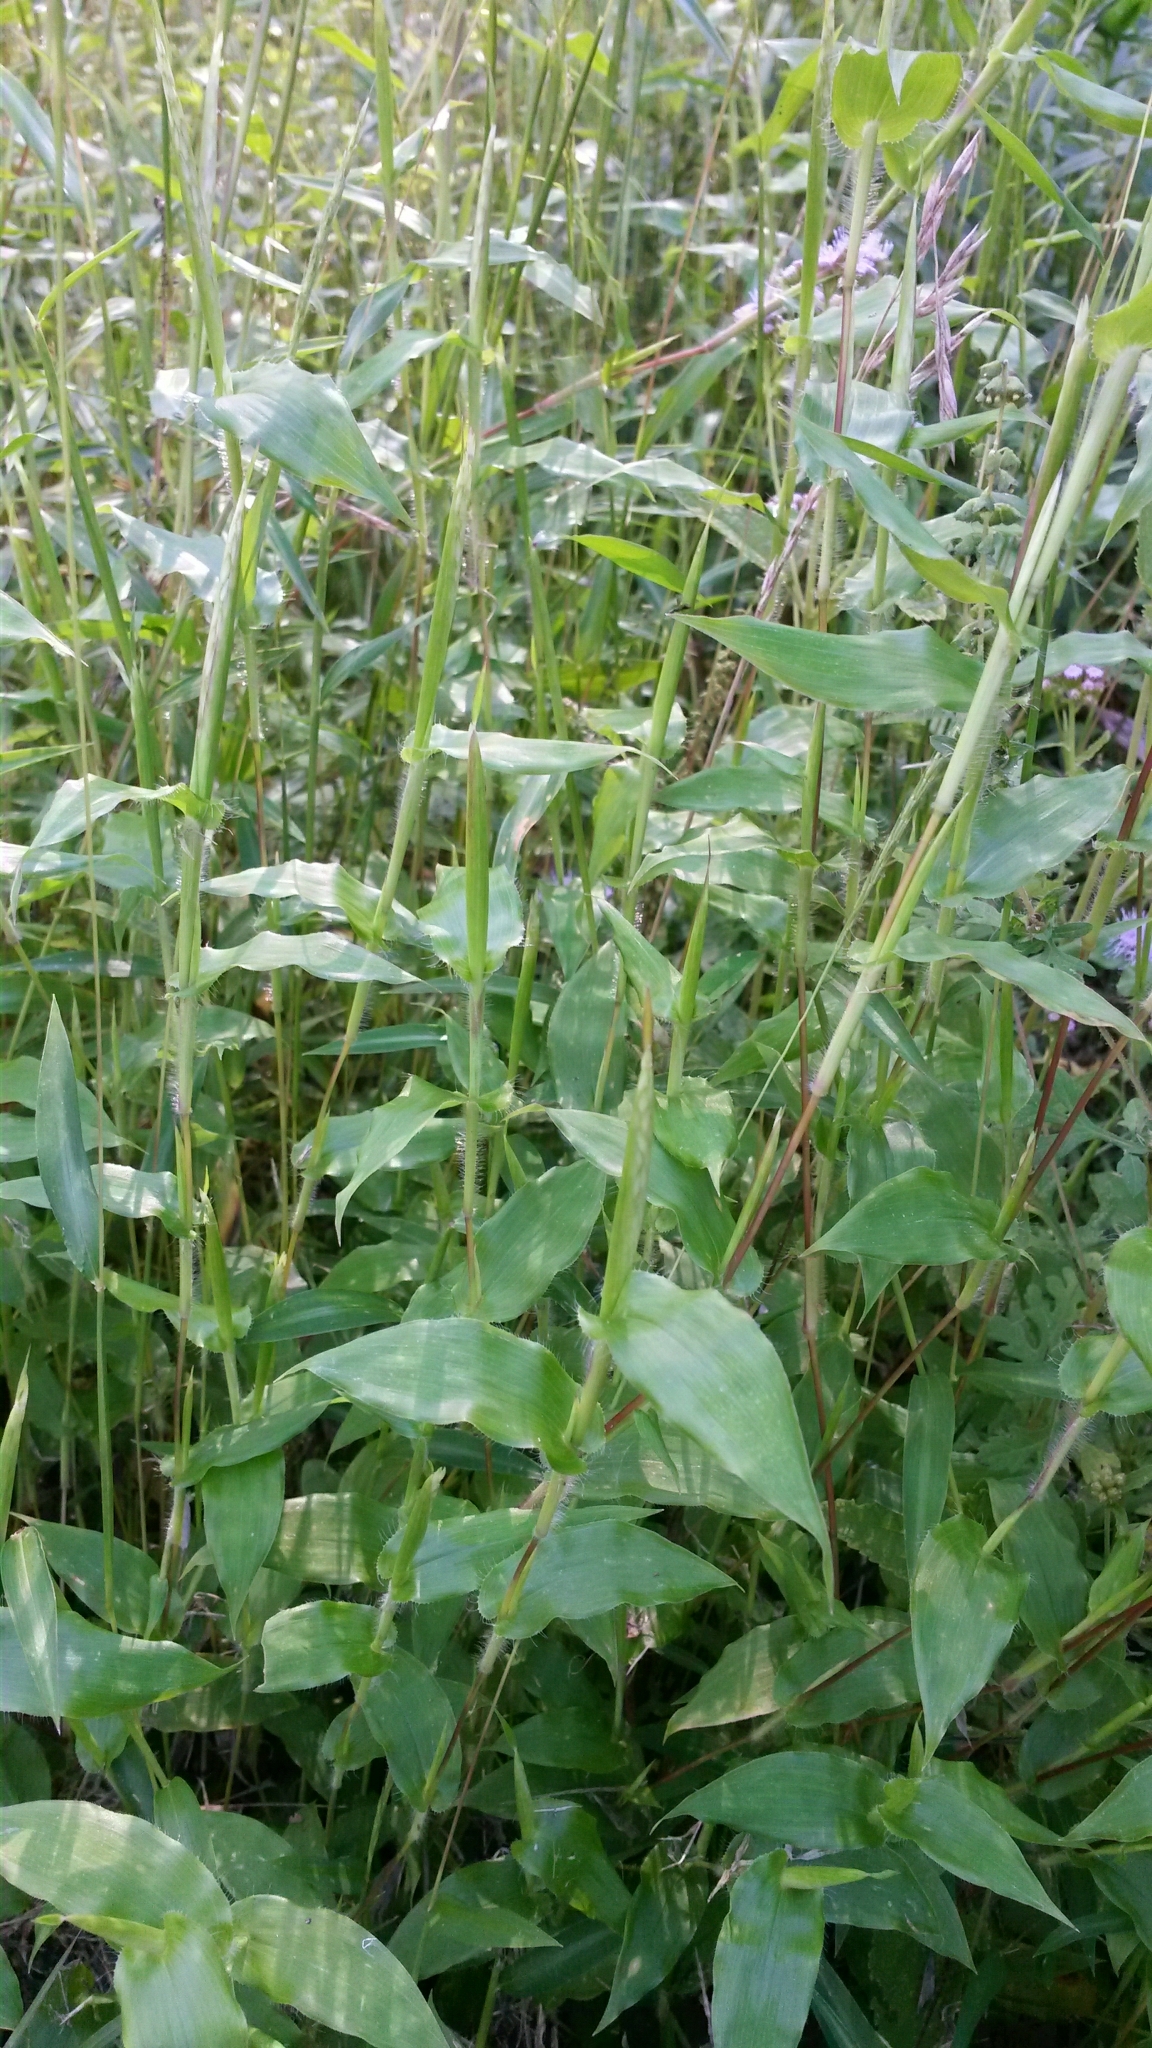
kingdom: Plantae
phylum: Tracheophyta
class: Liliopsida
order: Poales
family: Poaceae
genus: Arthraxon
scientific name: Arthraxon hispidus
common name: Small carpgrass
